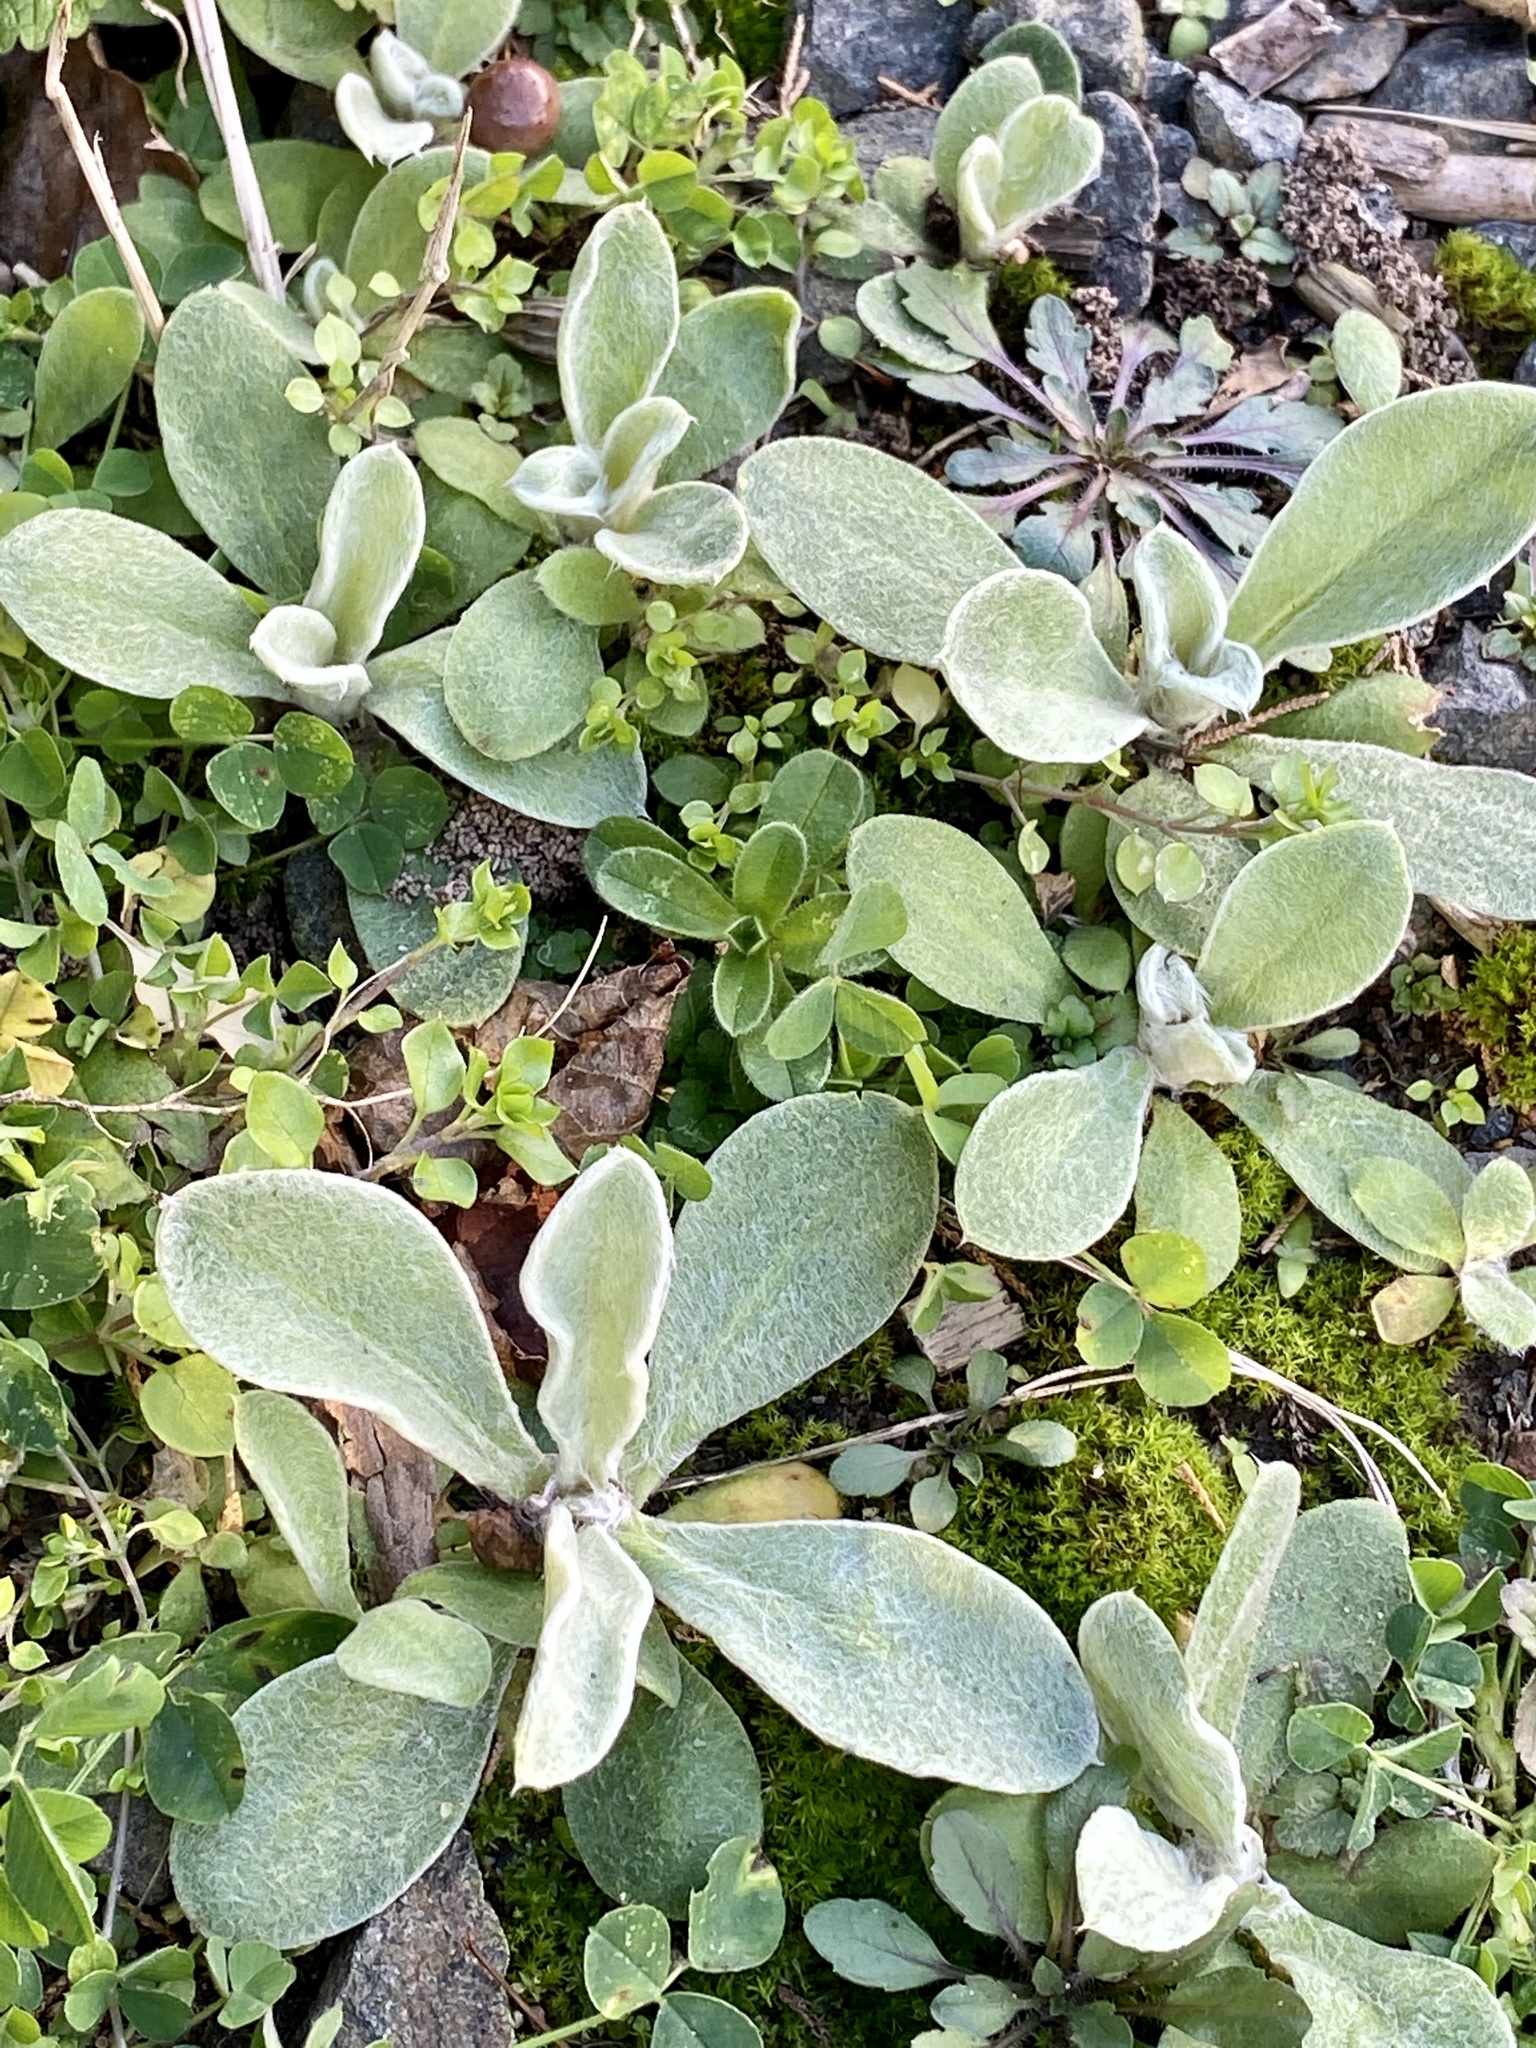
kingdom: Plantae
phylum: Tracheophyta
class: Magnoliopsida
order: Caryophyllales
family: Caryophyllaceae
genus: Silene
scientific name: Silene coronaria
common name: Rose campion
